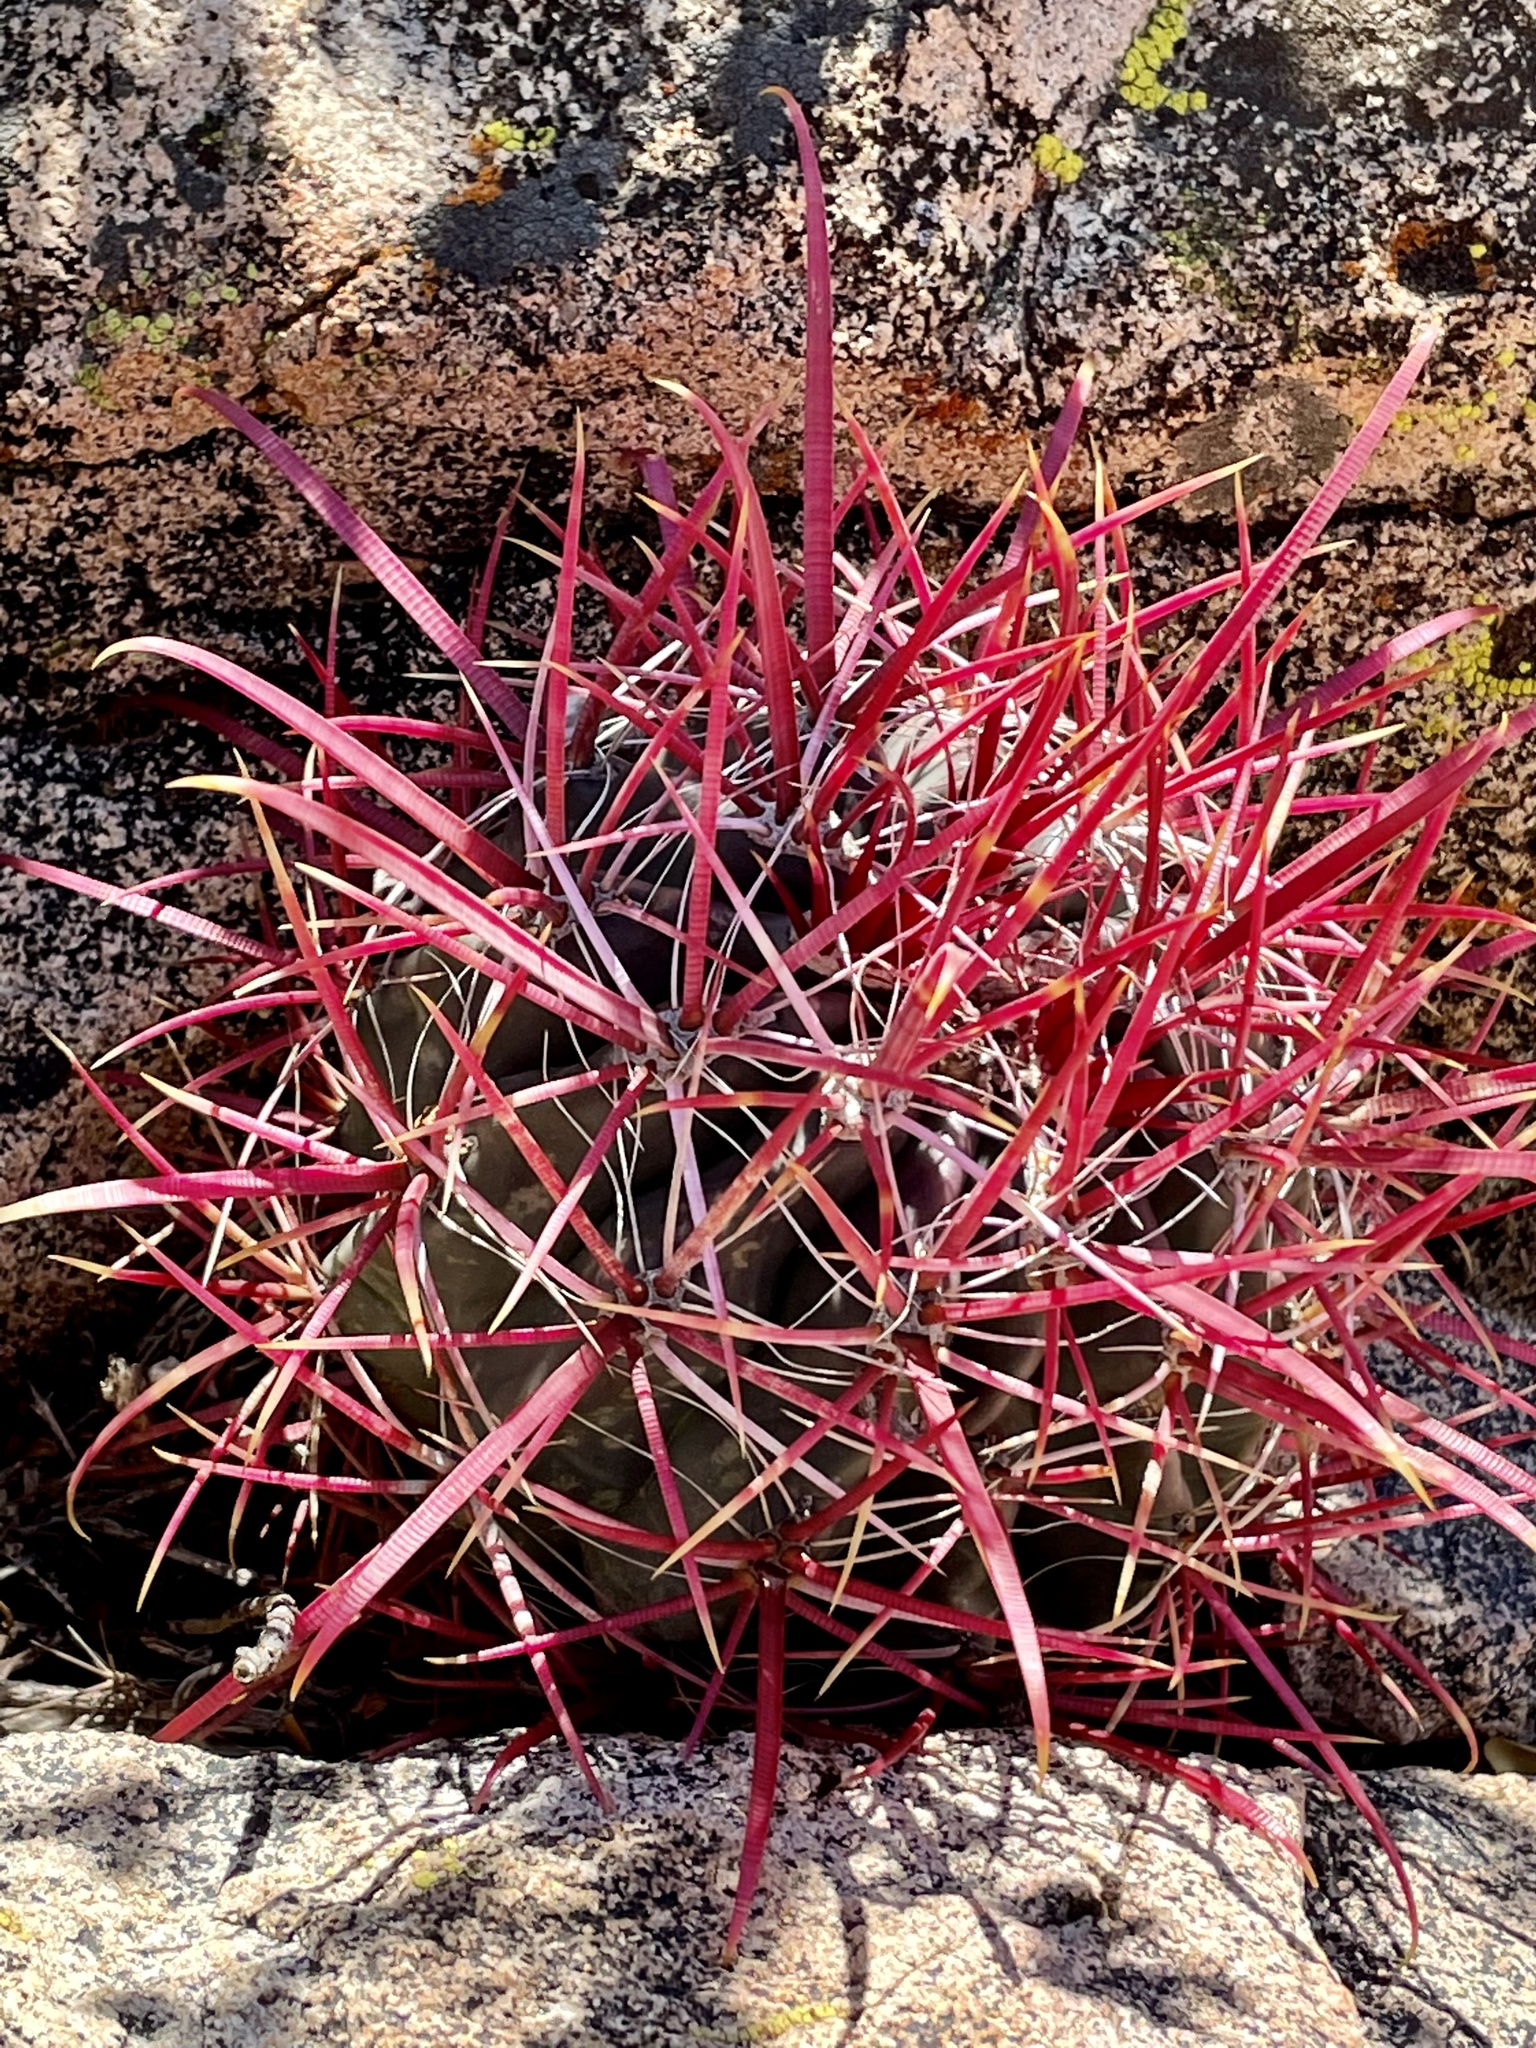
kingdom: Plantae
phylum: Tracheophyta
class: Magnoliopsida
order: Caryophyllales
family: Cactaceae
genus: Ferocactus
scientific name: Ferocactus gracilis
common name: Fire barrel cactus
